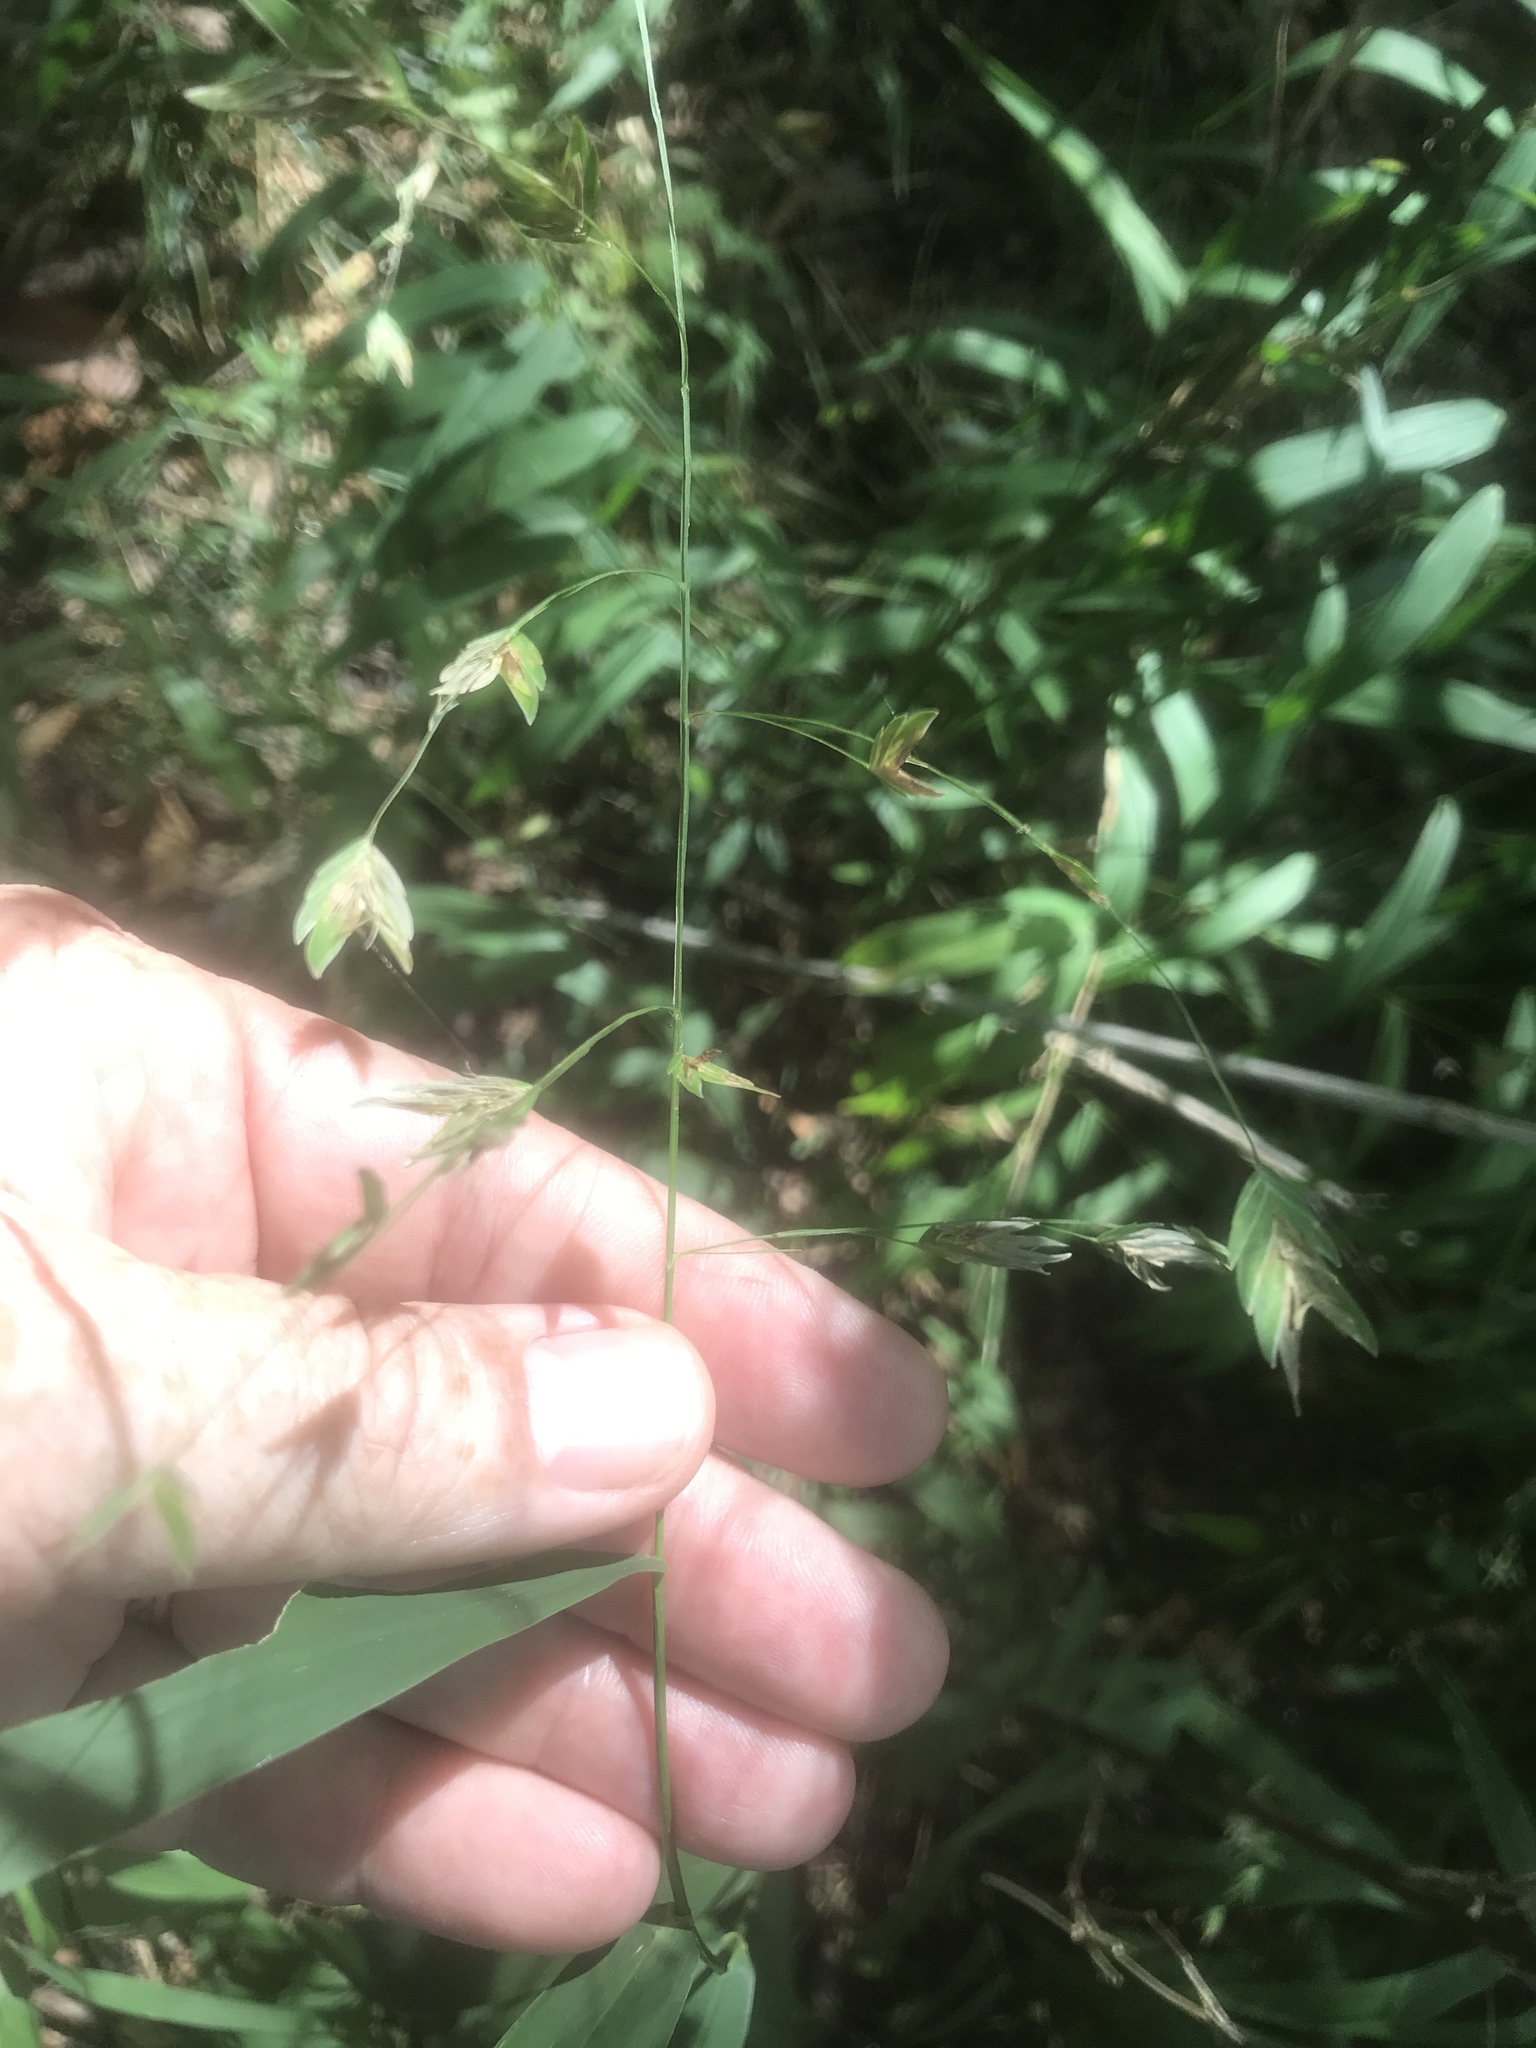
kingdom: Plantae
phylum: Tracheophyta
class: Liliopsida
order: Poales
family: Poaceae
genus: Chasmanthium
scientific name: Chasmanthium latifolium
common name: Broad-leaved chasmanthium
